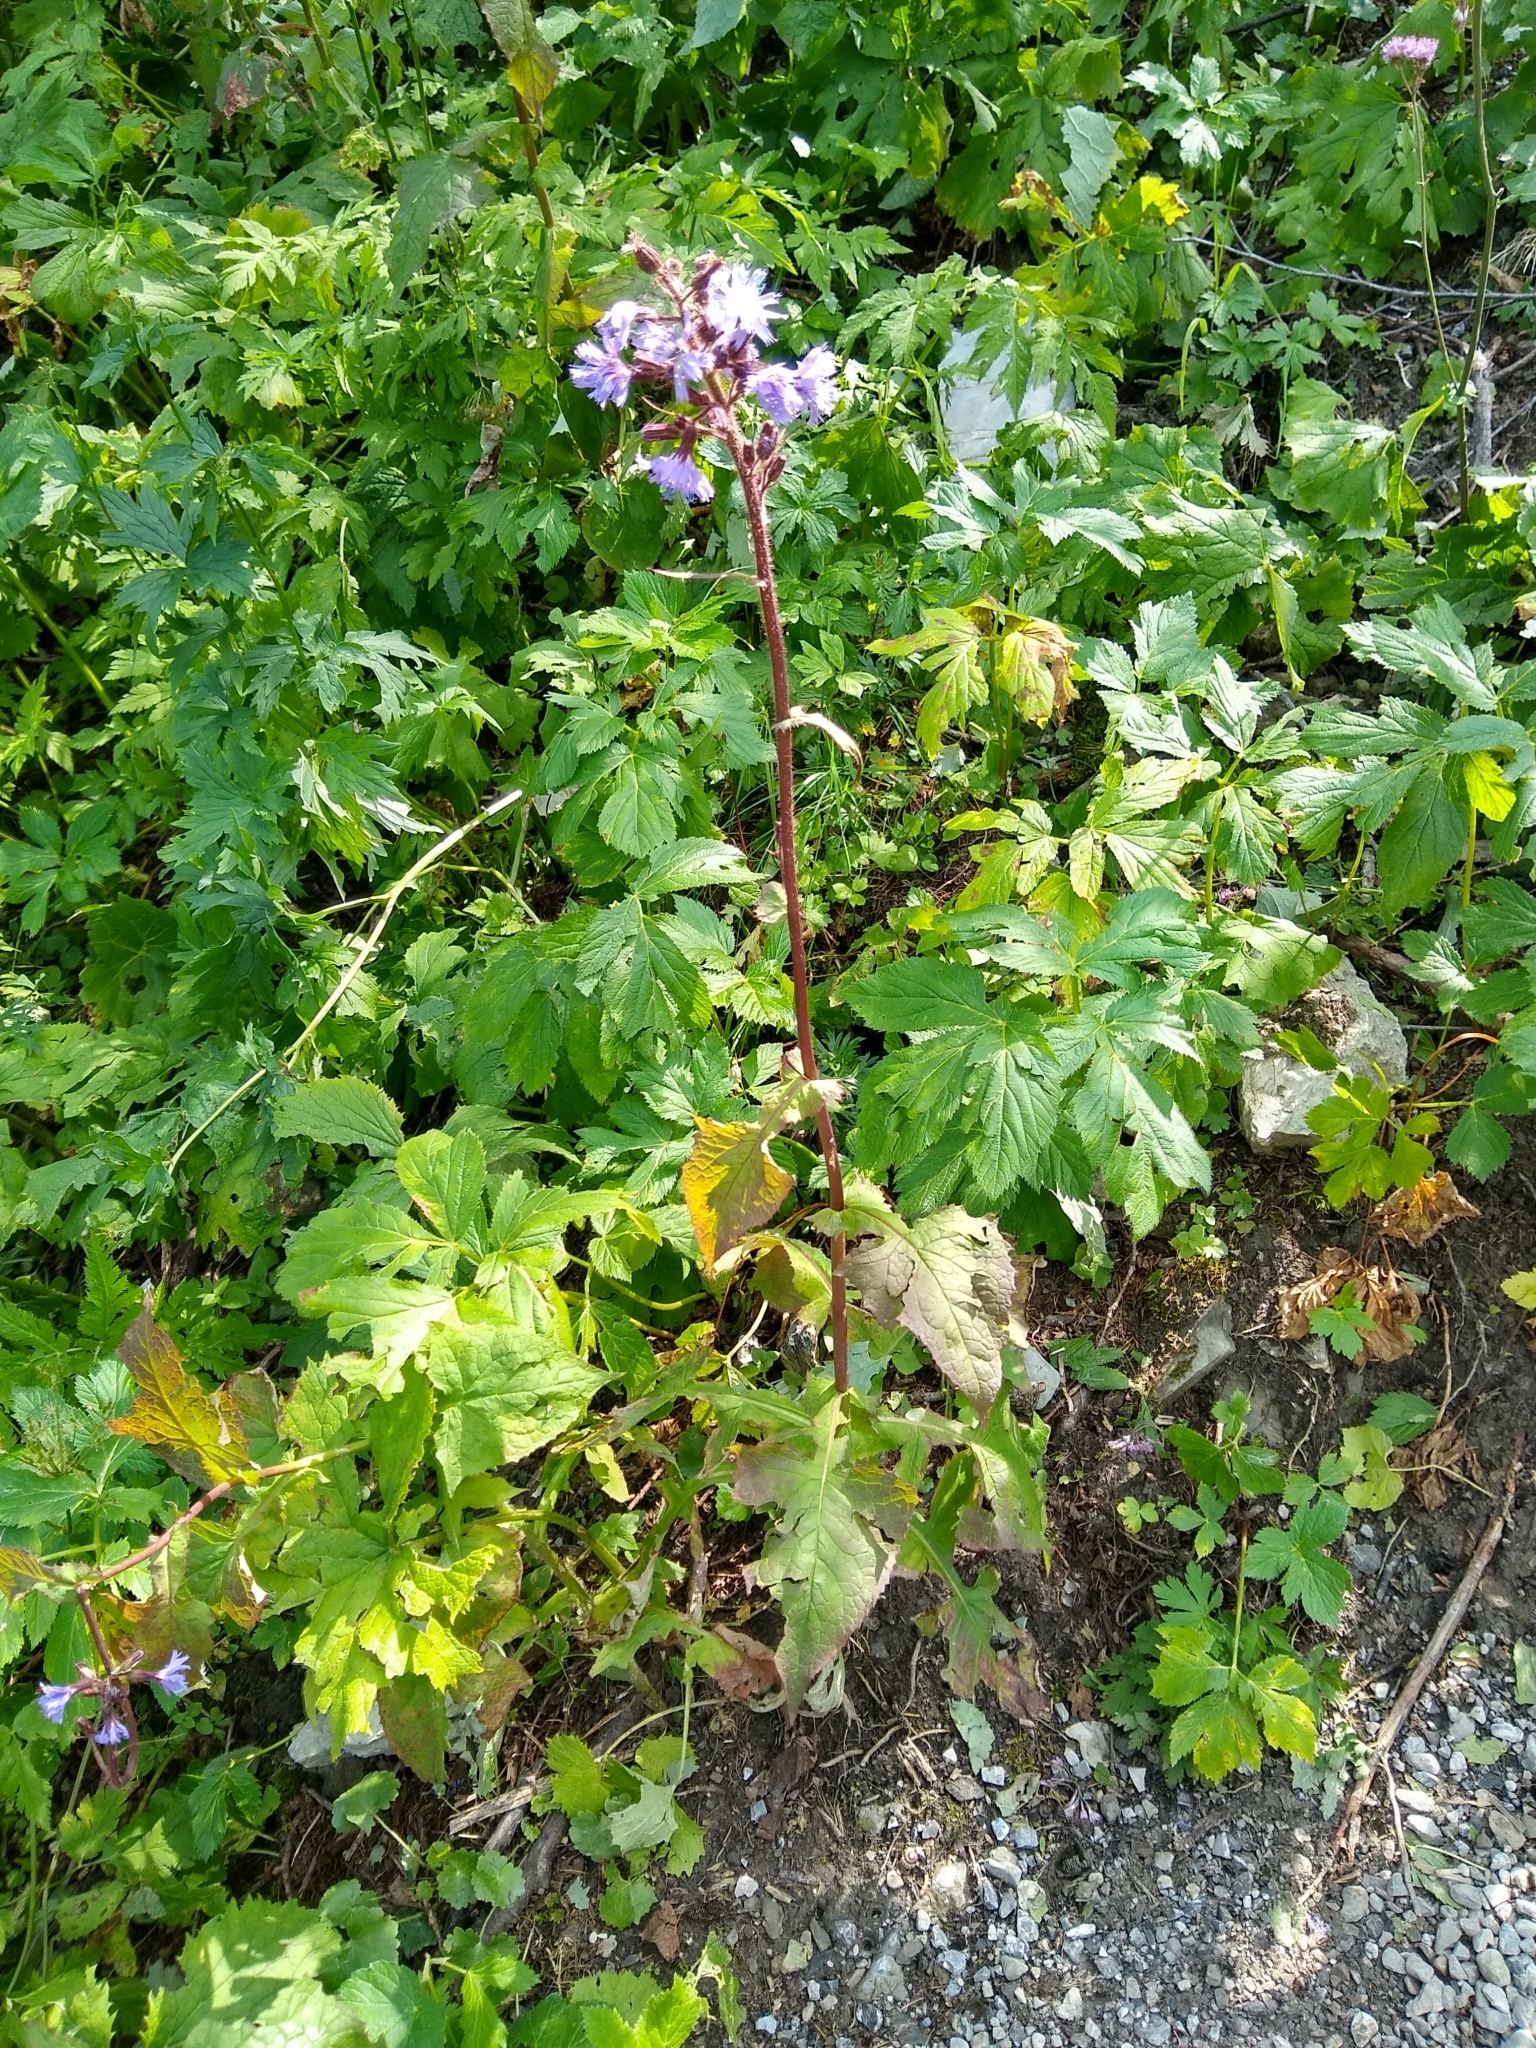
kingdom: Plantae
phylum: Tracheophyta
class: Magnoliopsida
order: Asterales
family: Asteraceae
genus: Cicerbita
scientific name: Cicerbita alpina
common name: Alpine blue-sow-thistle
